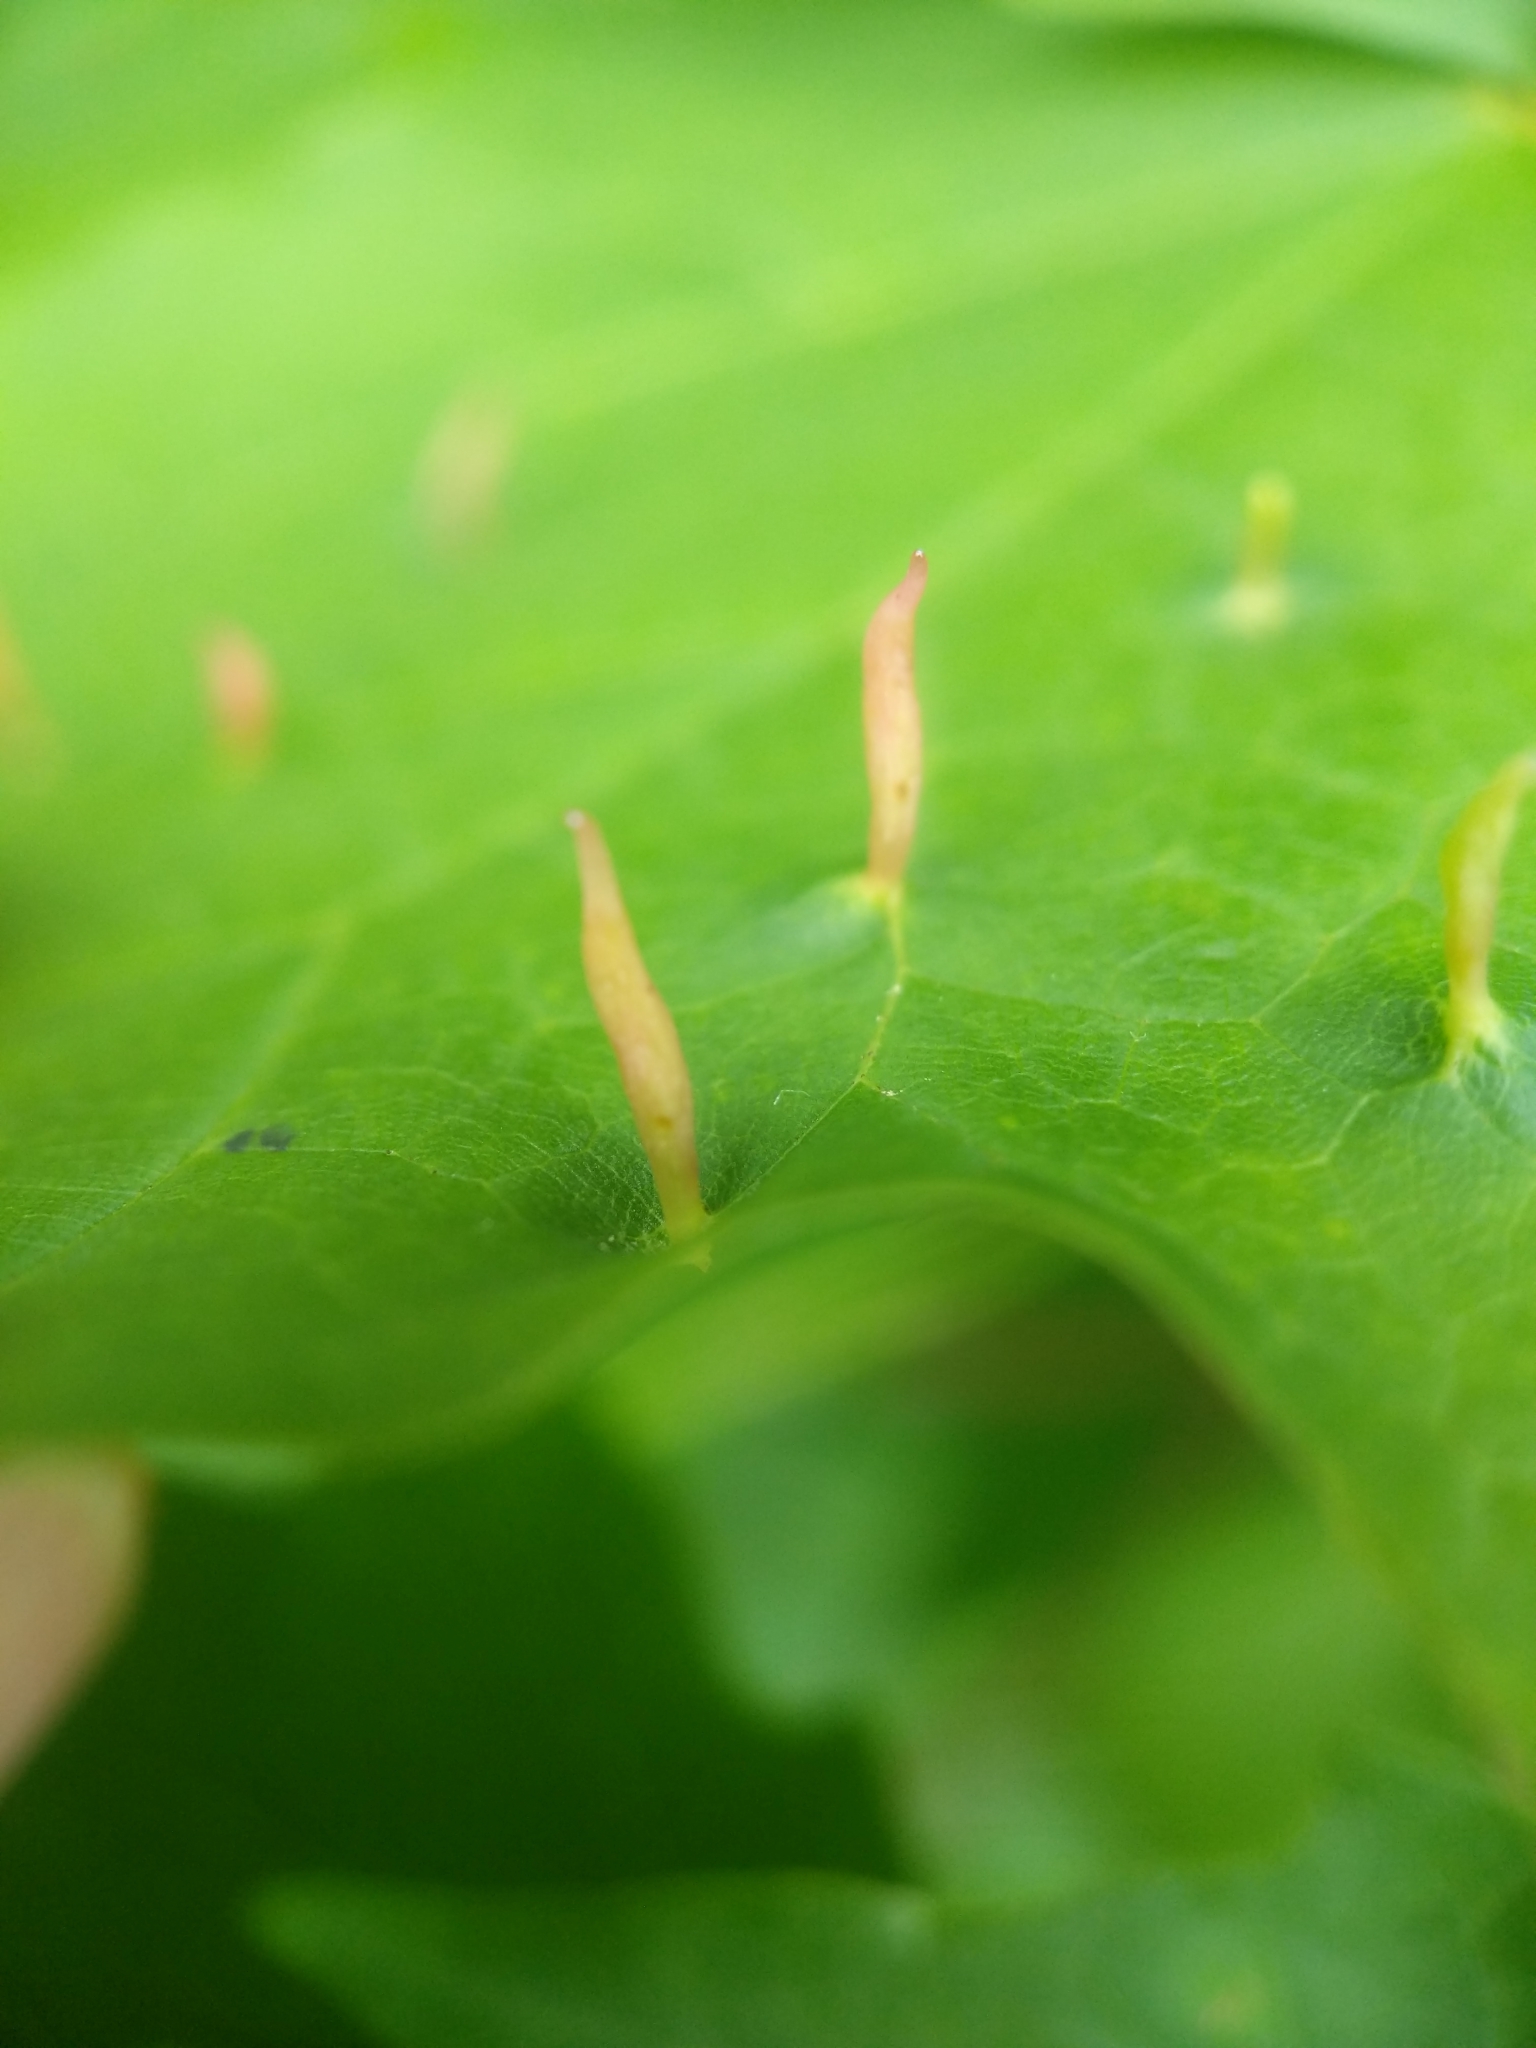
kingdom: Animalia
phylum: Arthropoda
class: Arachnida
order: Trombidiformes
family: Eriophyidae
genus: Vasates
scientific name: Vasates aceriscrumena
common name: Maple spindle gall mite
